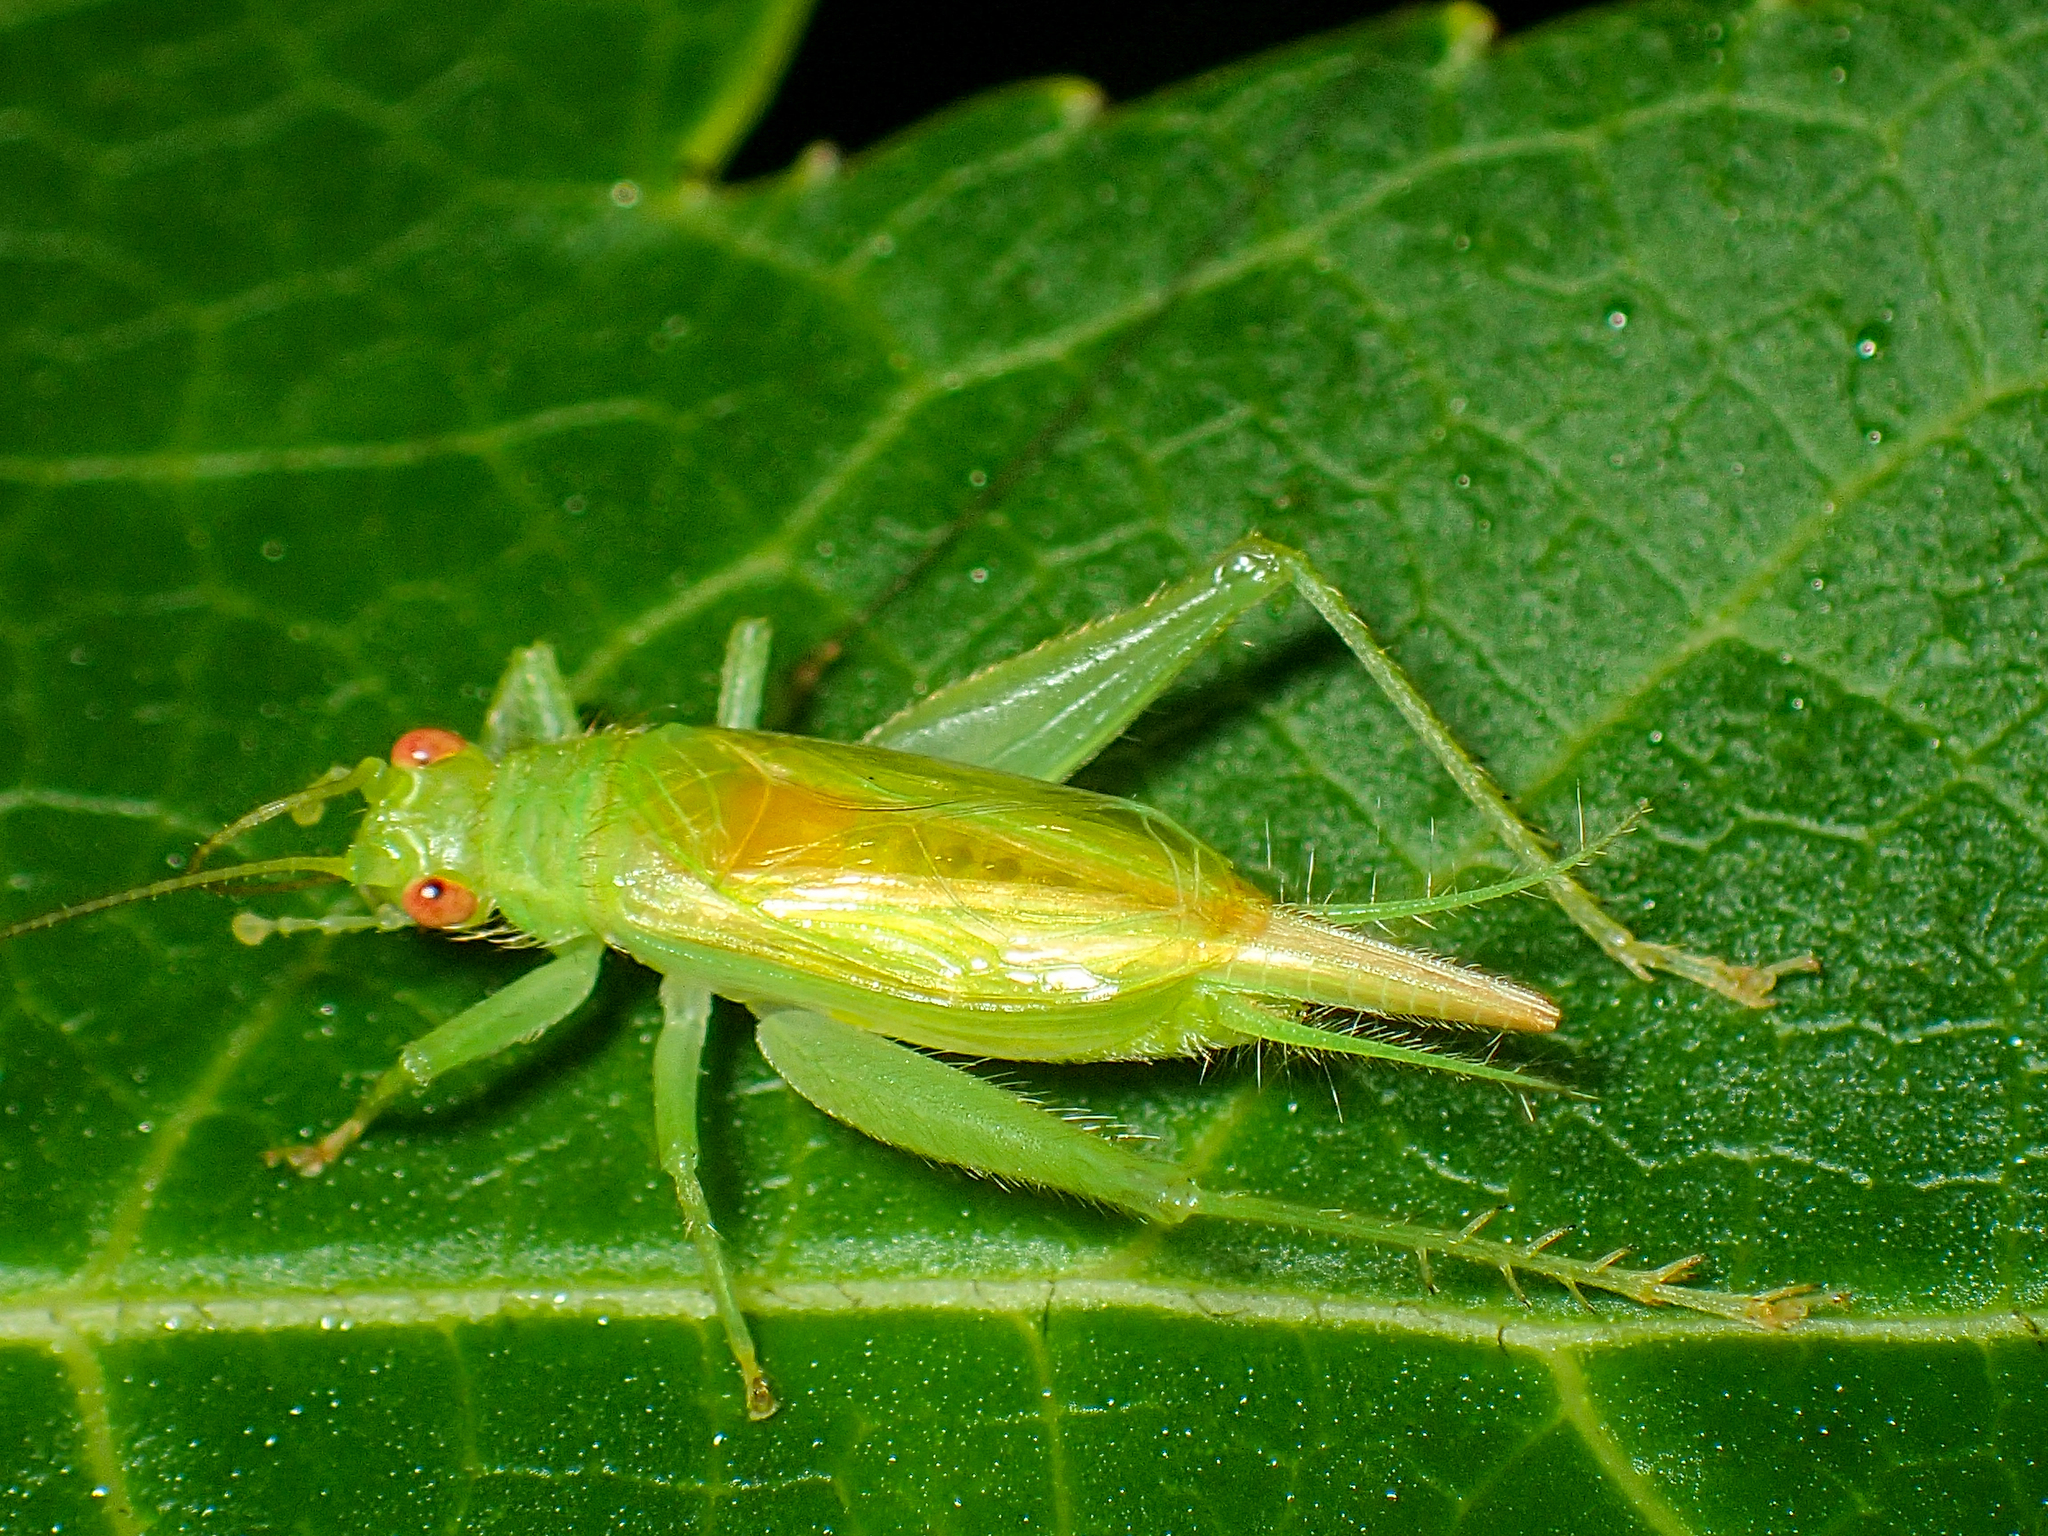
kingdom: Animalia
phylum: Arthropoda
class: Insecta
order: Orthoptera
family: Trigonidiidae
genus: Cyrtoxipha
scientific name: Cyrtoxipha columbiana
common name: Columbian trig
